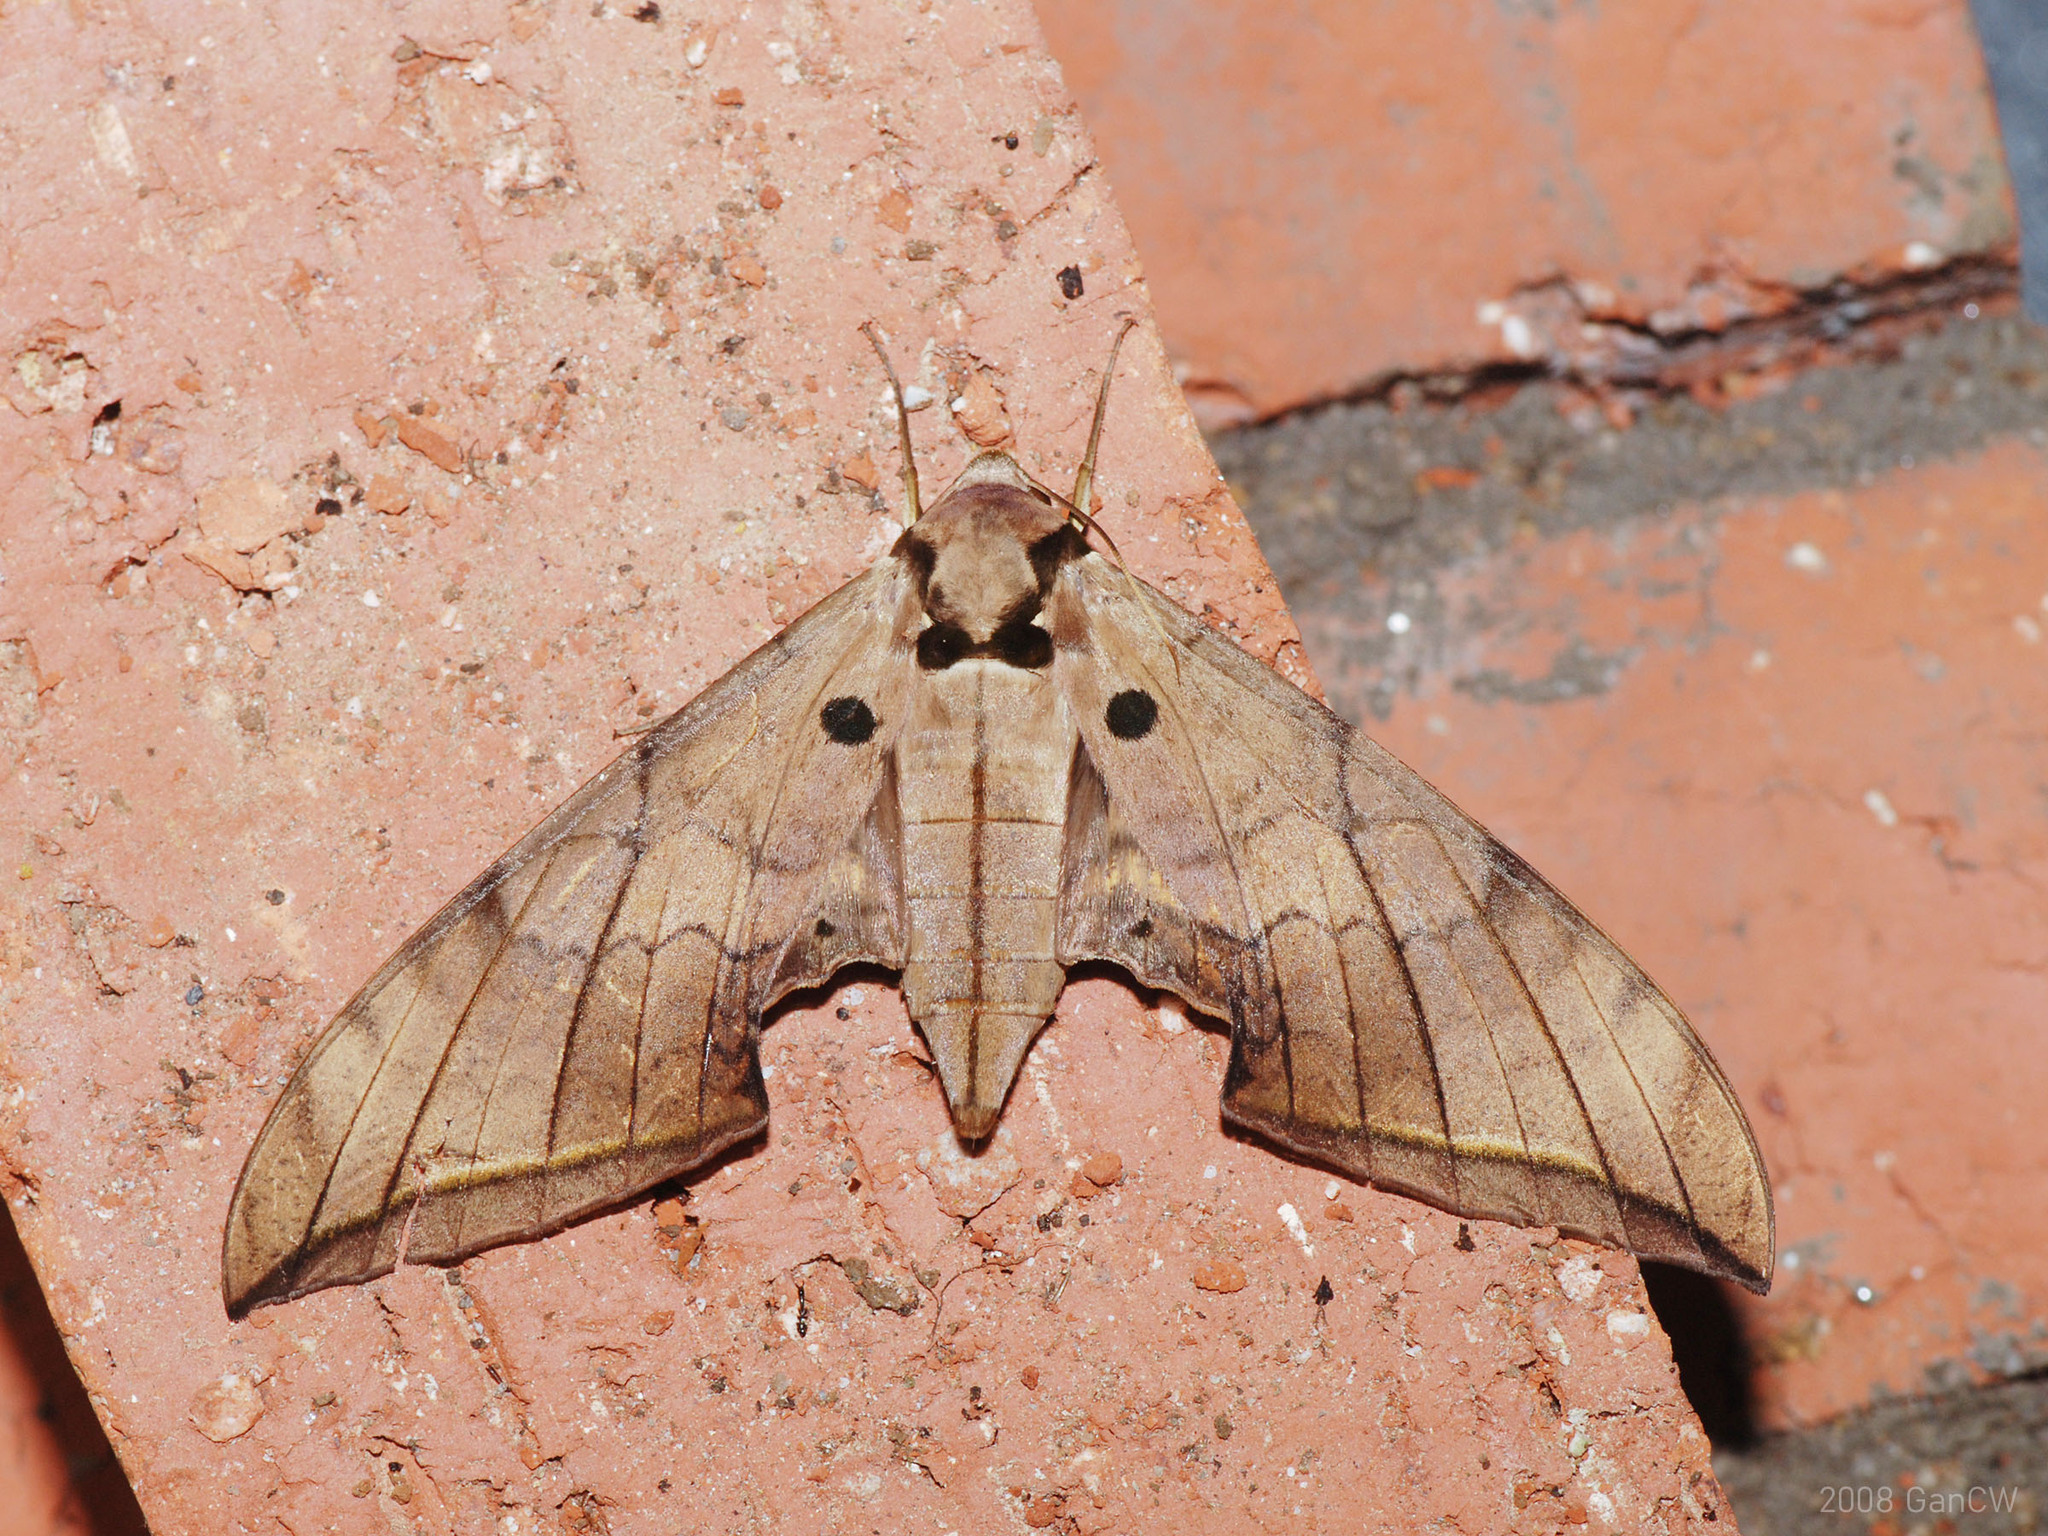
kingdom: Animalia
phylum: Arthropoda
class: Insecta
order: Lepidoptera
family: Sphingidae
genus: Ambulyx
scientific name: Ambulyx substrigilis
